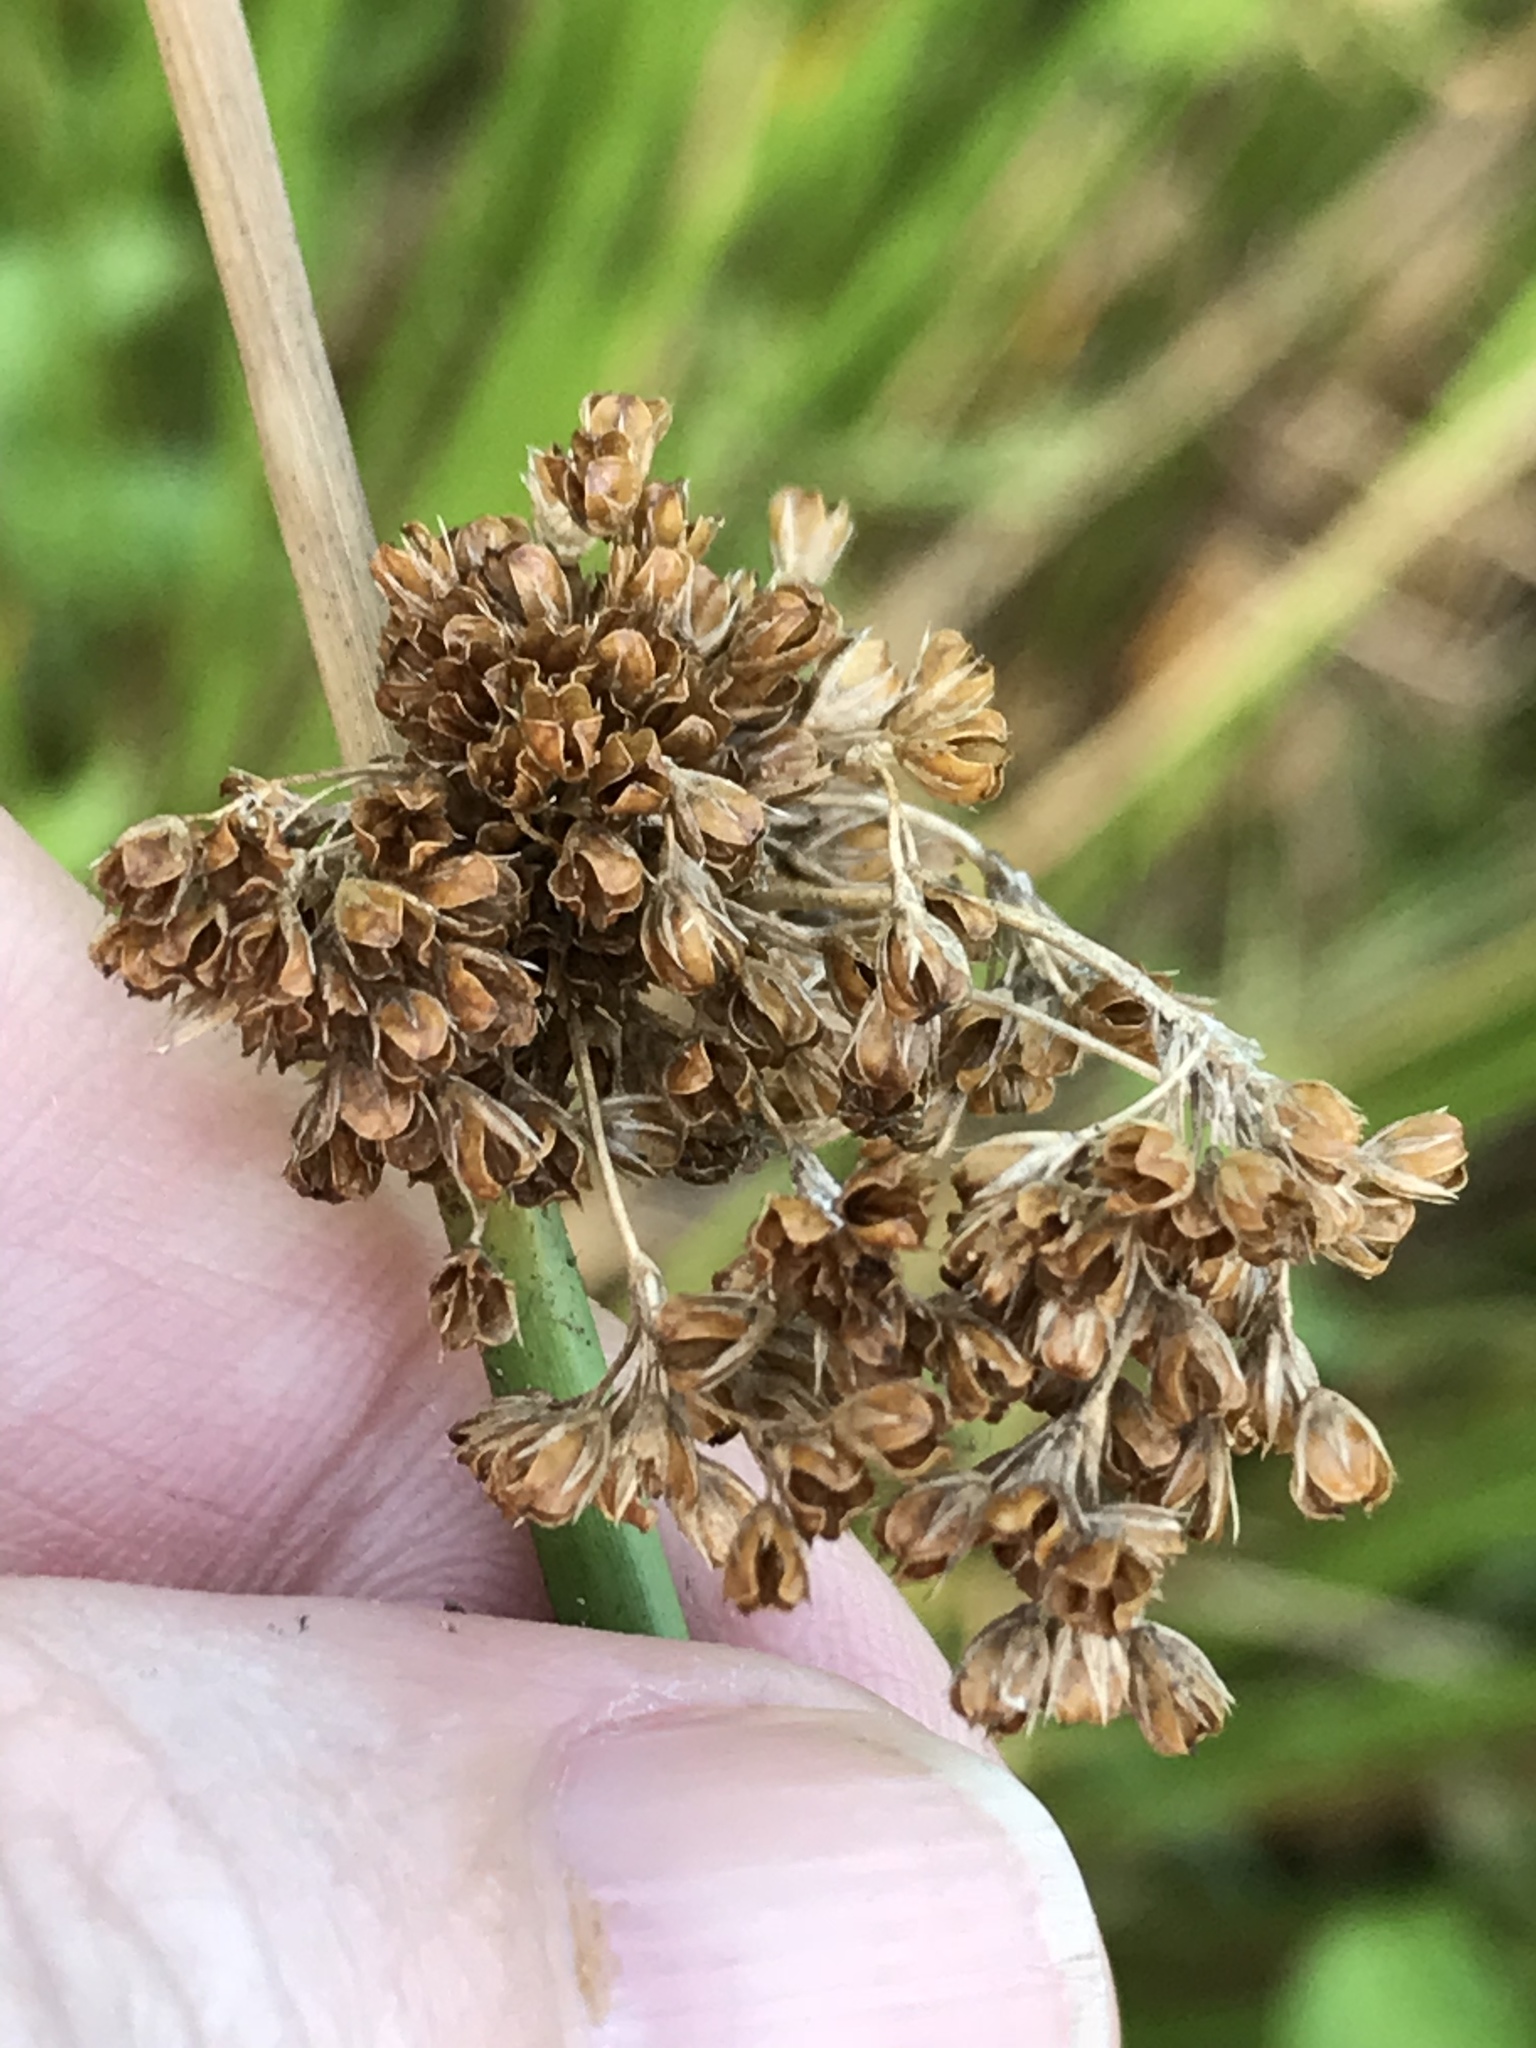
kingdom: Plantae
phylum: Tracheophyta
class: Liliopsida
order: Poales
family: Juncaceae
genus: Juncus
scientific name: Juncus effusus
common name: Soft rush
